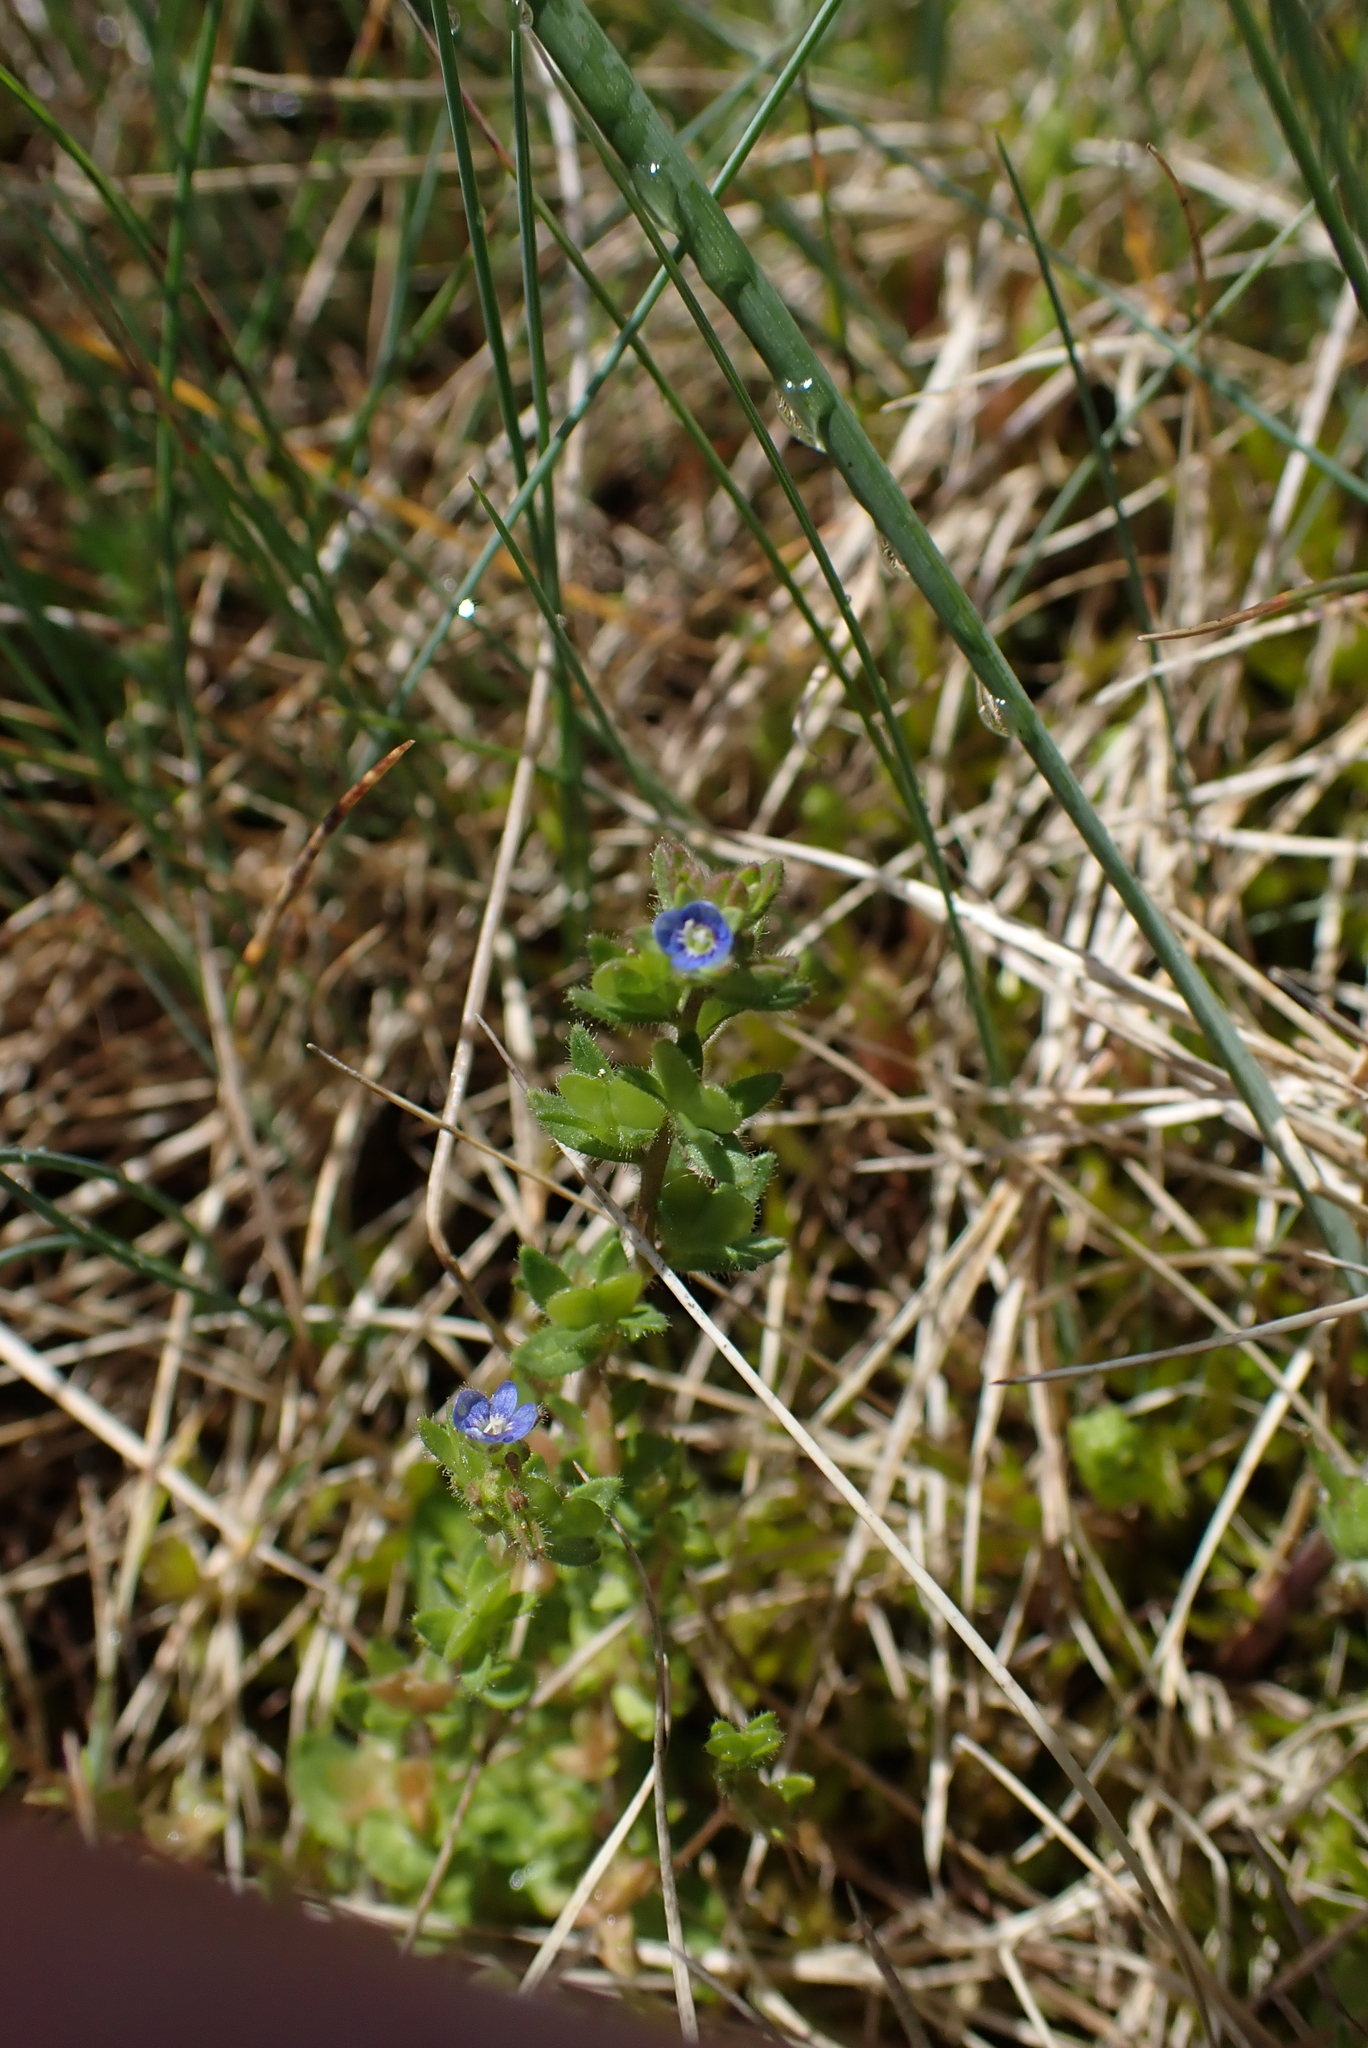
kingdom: Plantae
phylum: Tracheophyta
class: Magnoliopsida
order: Lamiales
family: Plantaginaceae
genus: Veronica
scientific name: Veronica arvensis
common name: Corn speedwell
